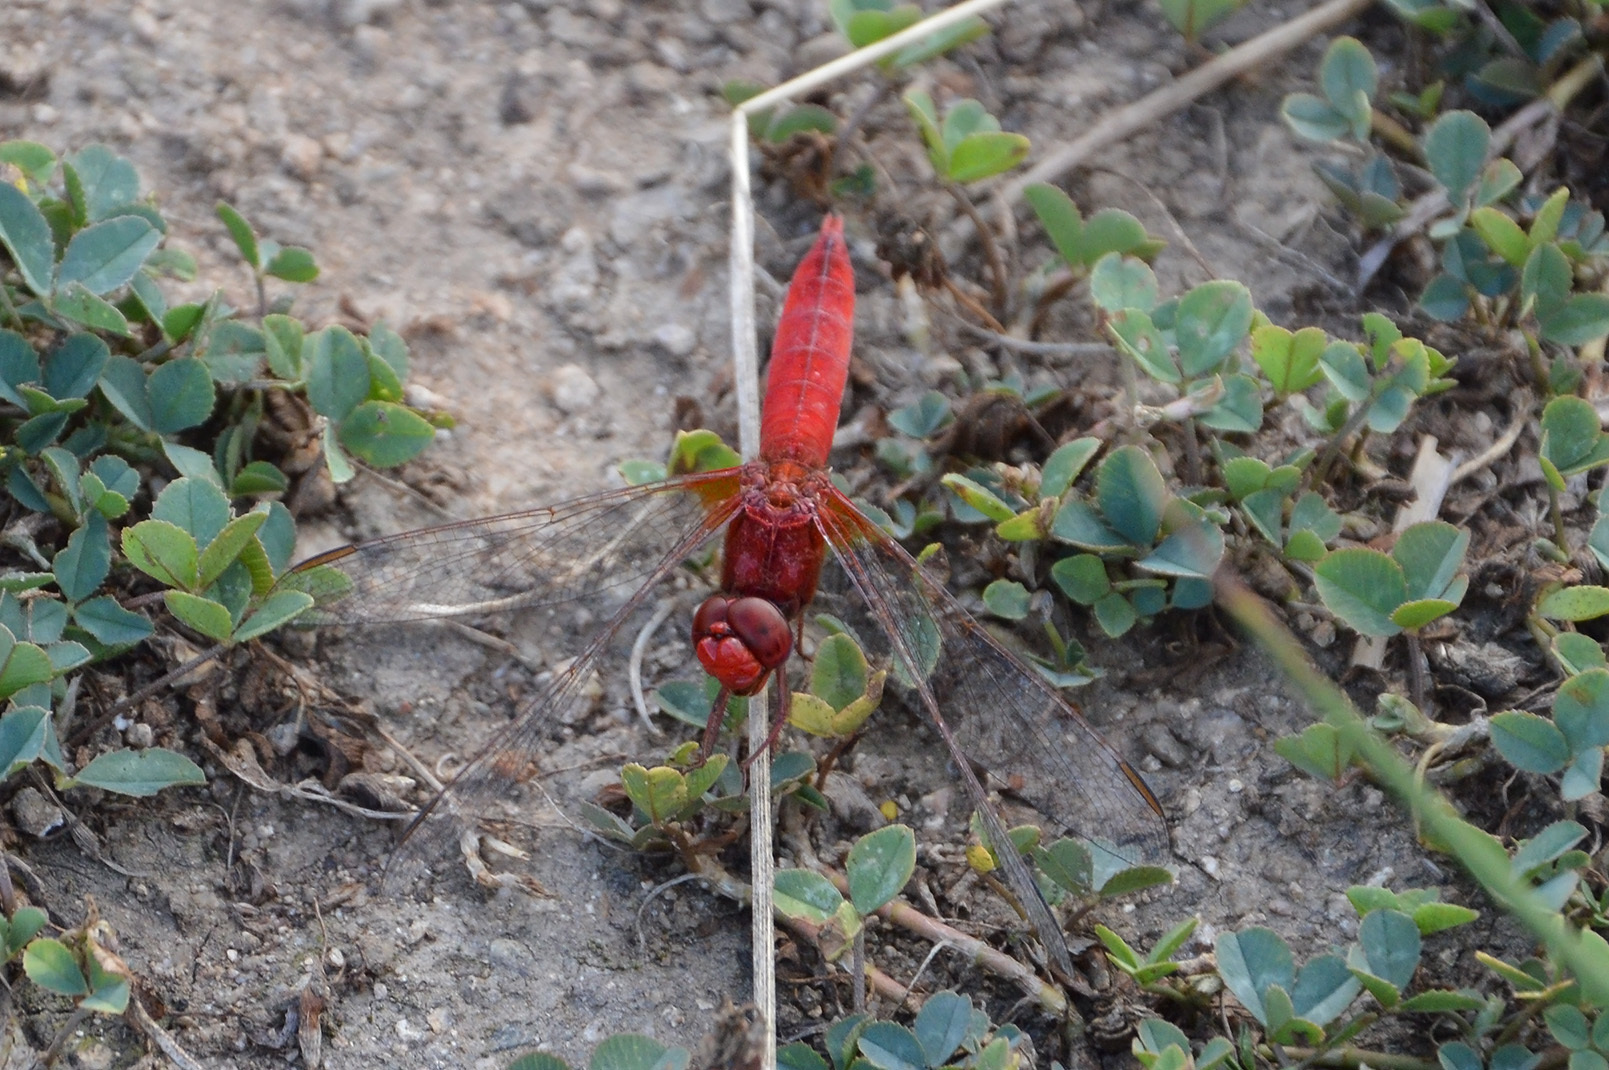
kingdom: Animalia
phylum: Arthropoda
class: Insecta
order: Odonata
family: Libellulidae
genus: Crocothemis
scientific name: Crocothemis erythraea
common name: Scarlet dragonfly
